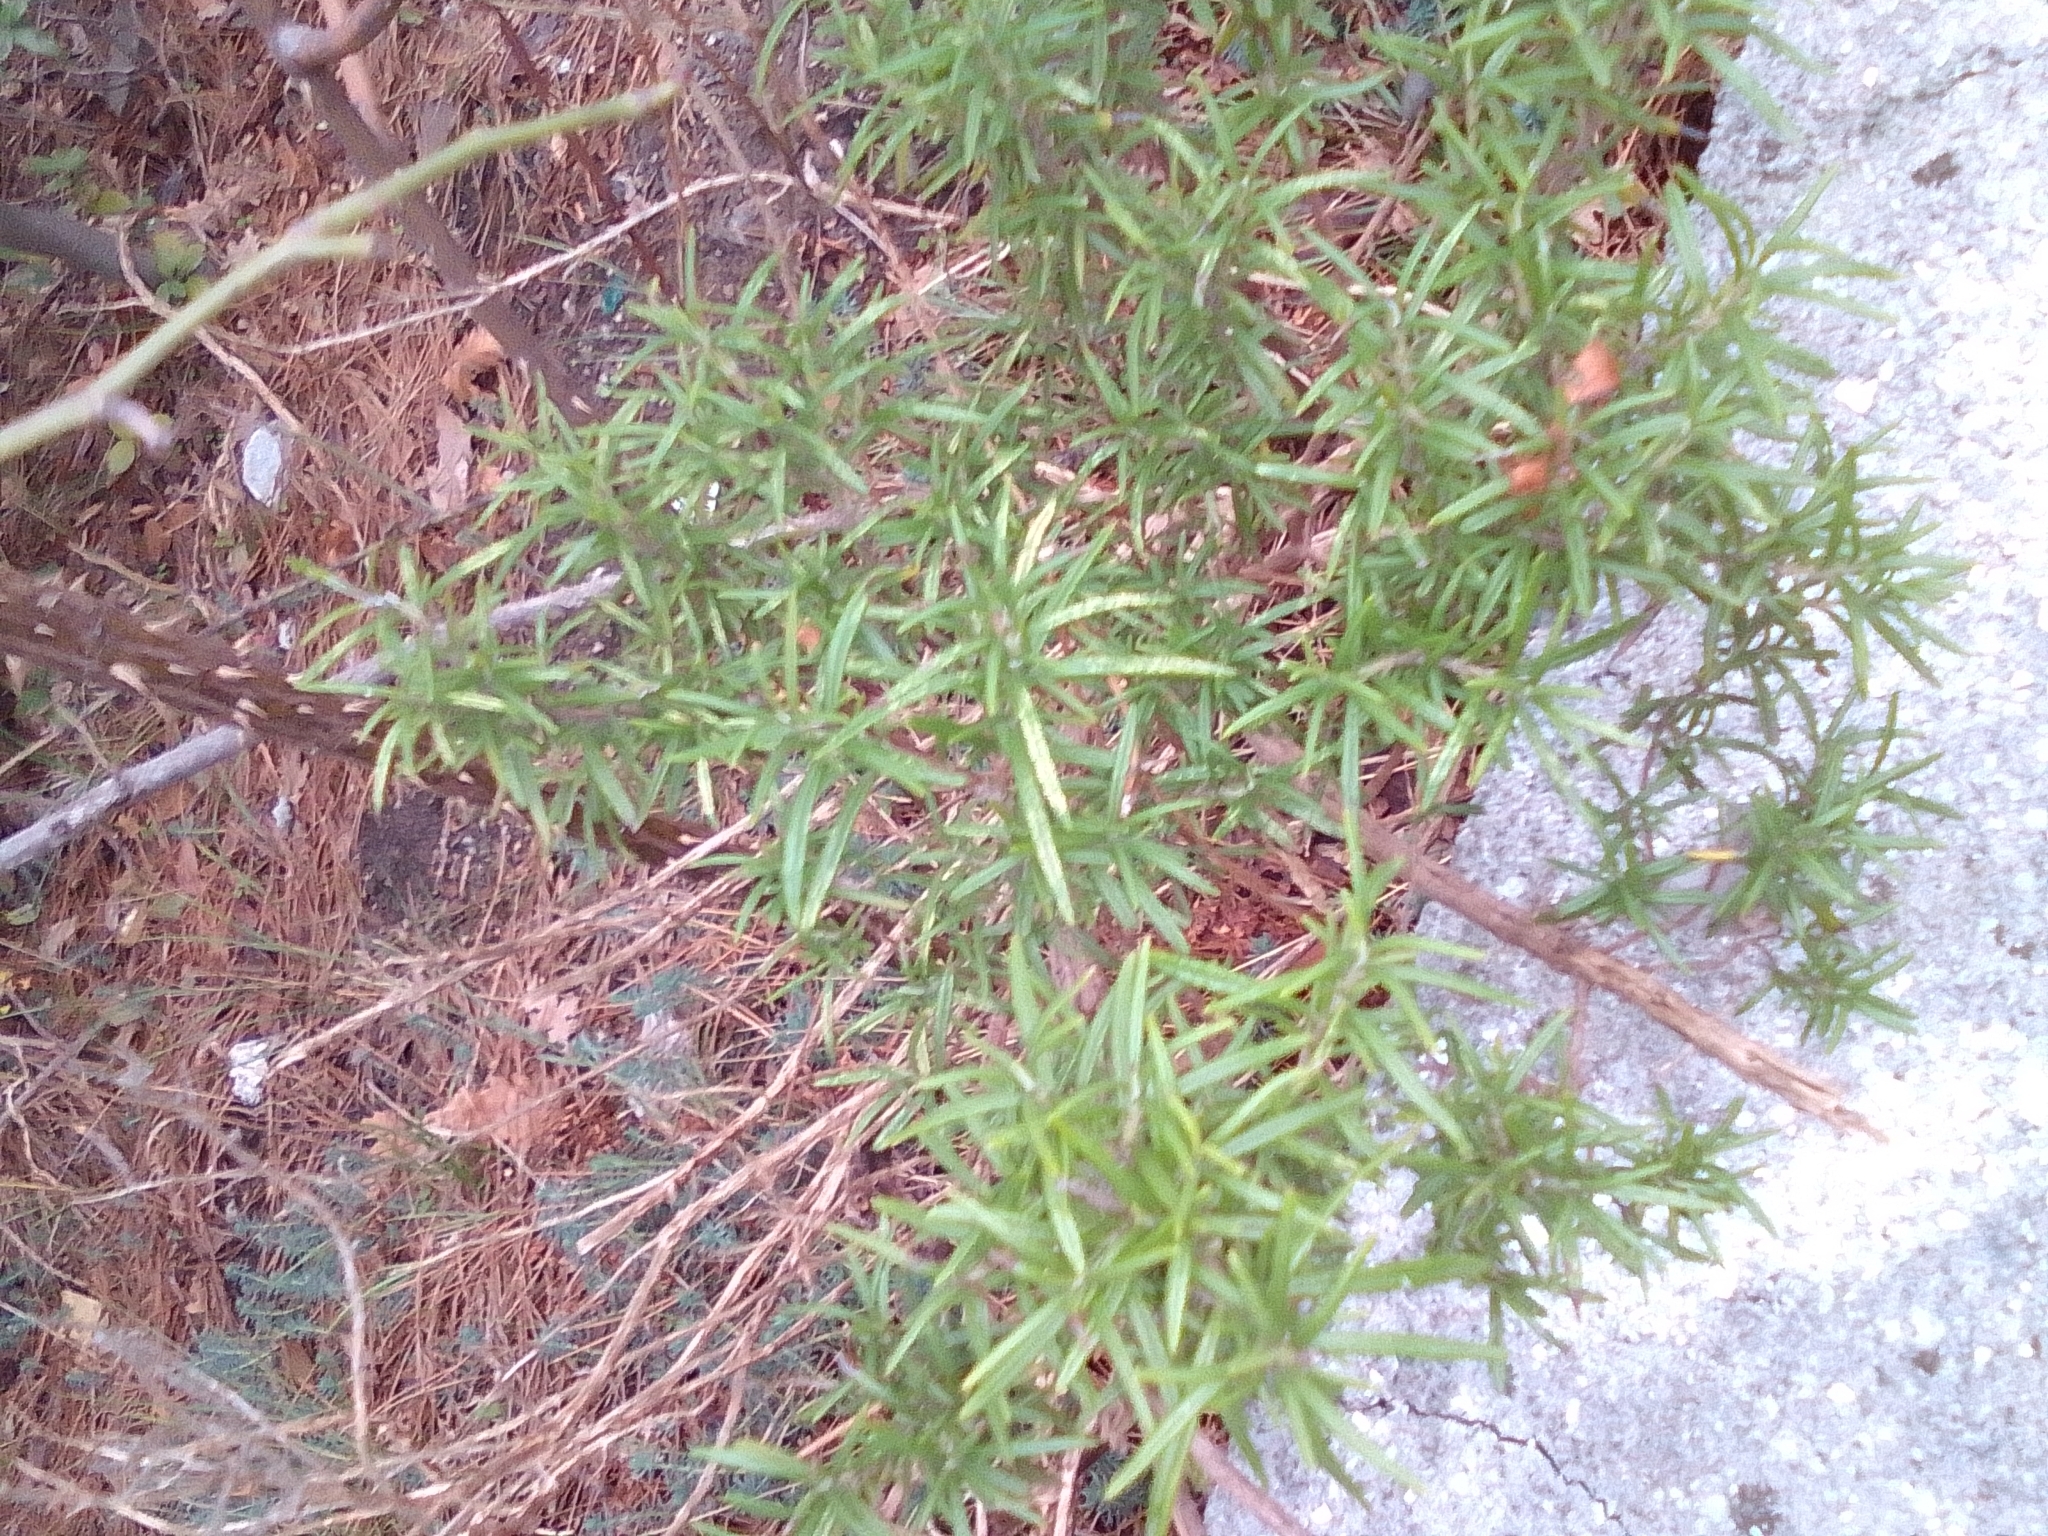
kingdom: Plantae
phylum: Tracheophyta
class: Magnoliopsida
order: Lamiales
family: Lamiaceae
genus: Salvia
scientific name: Salvia rosmarinus
